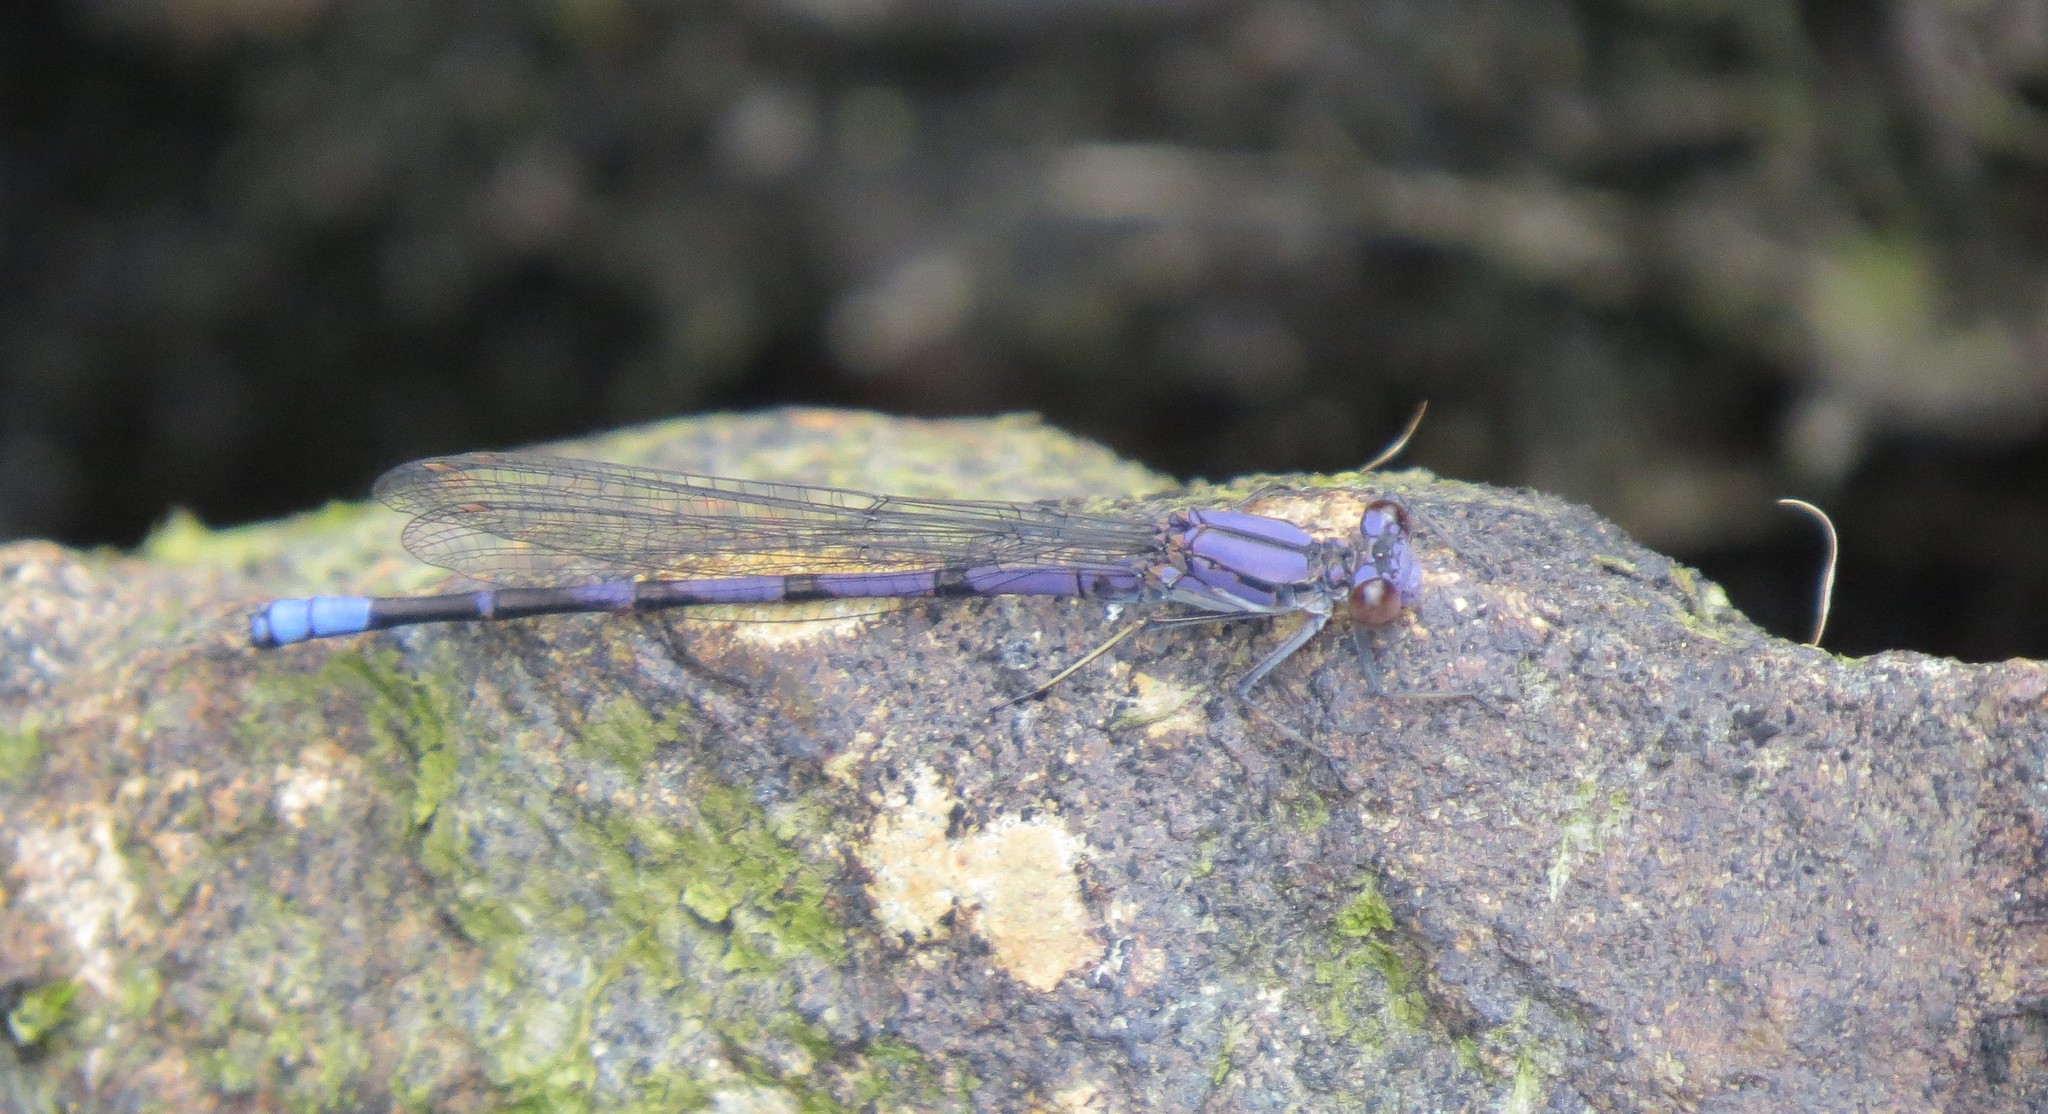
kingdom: Animalia
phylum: Arthropoda
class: Insecta
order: Odonata
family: Coenagrionidae
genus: Argia
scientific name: Argia emma
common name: Emma's dancer
